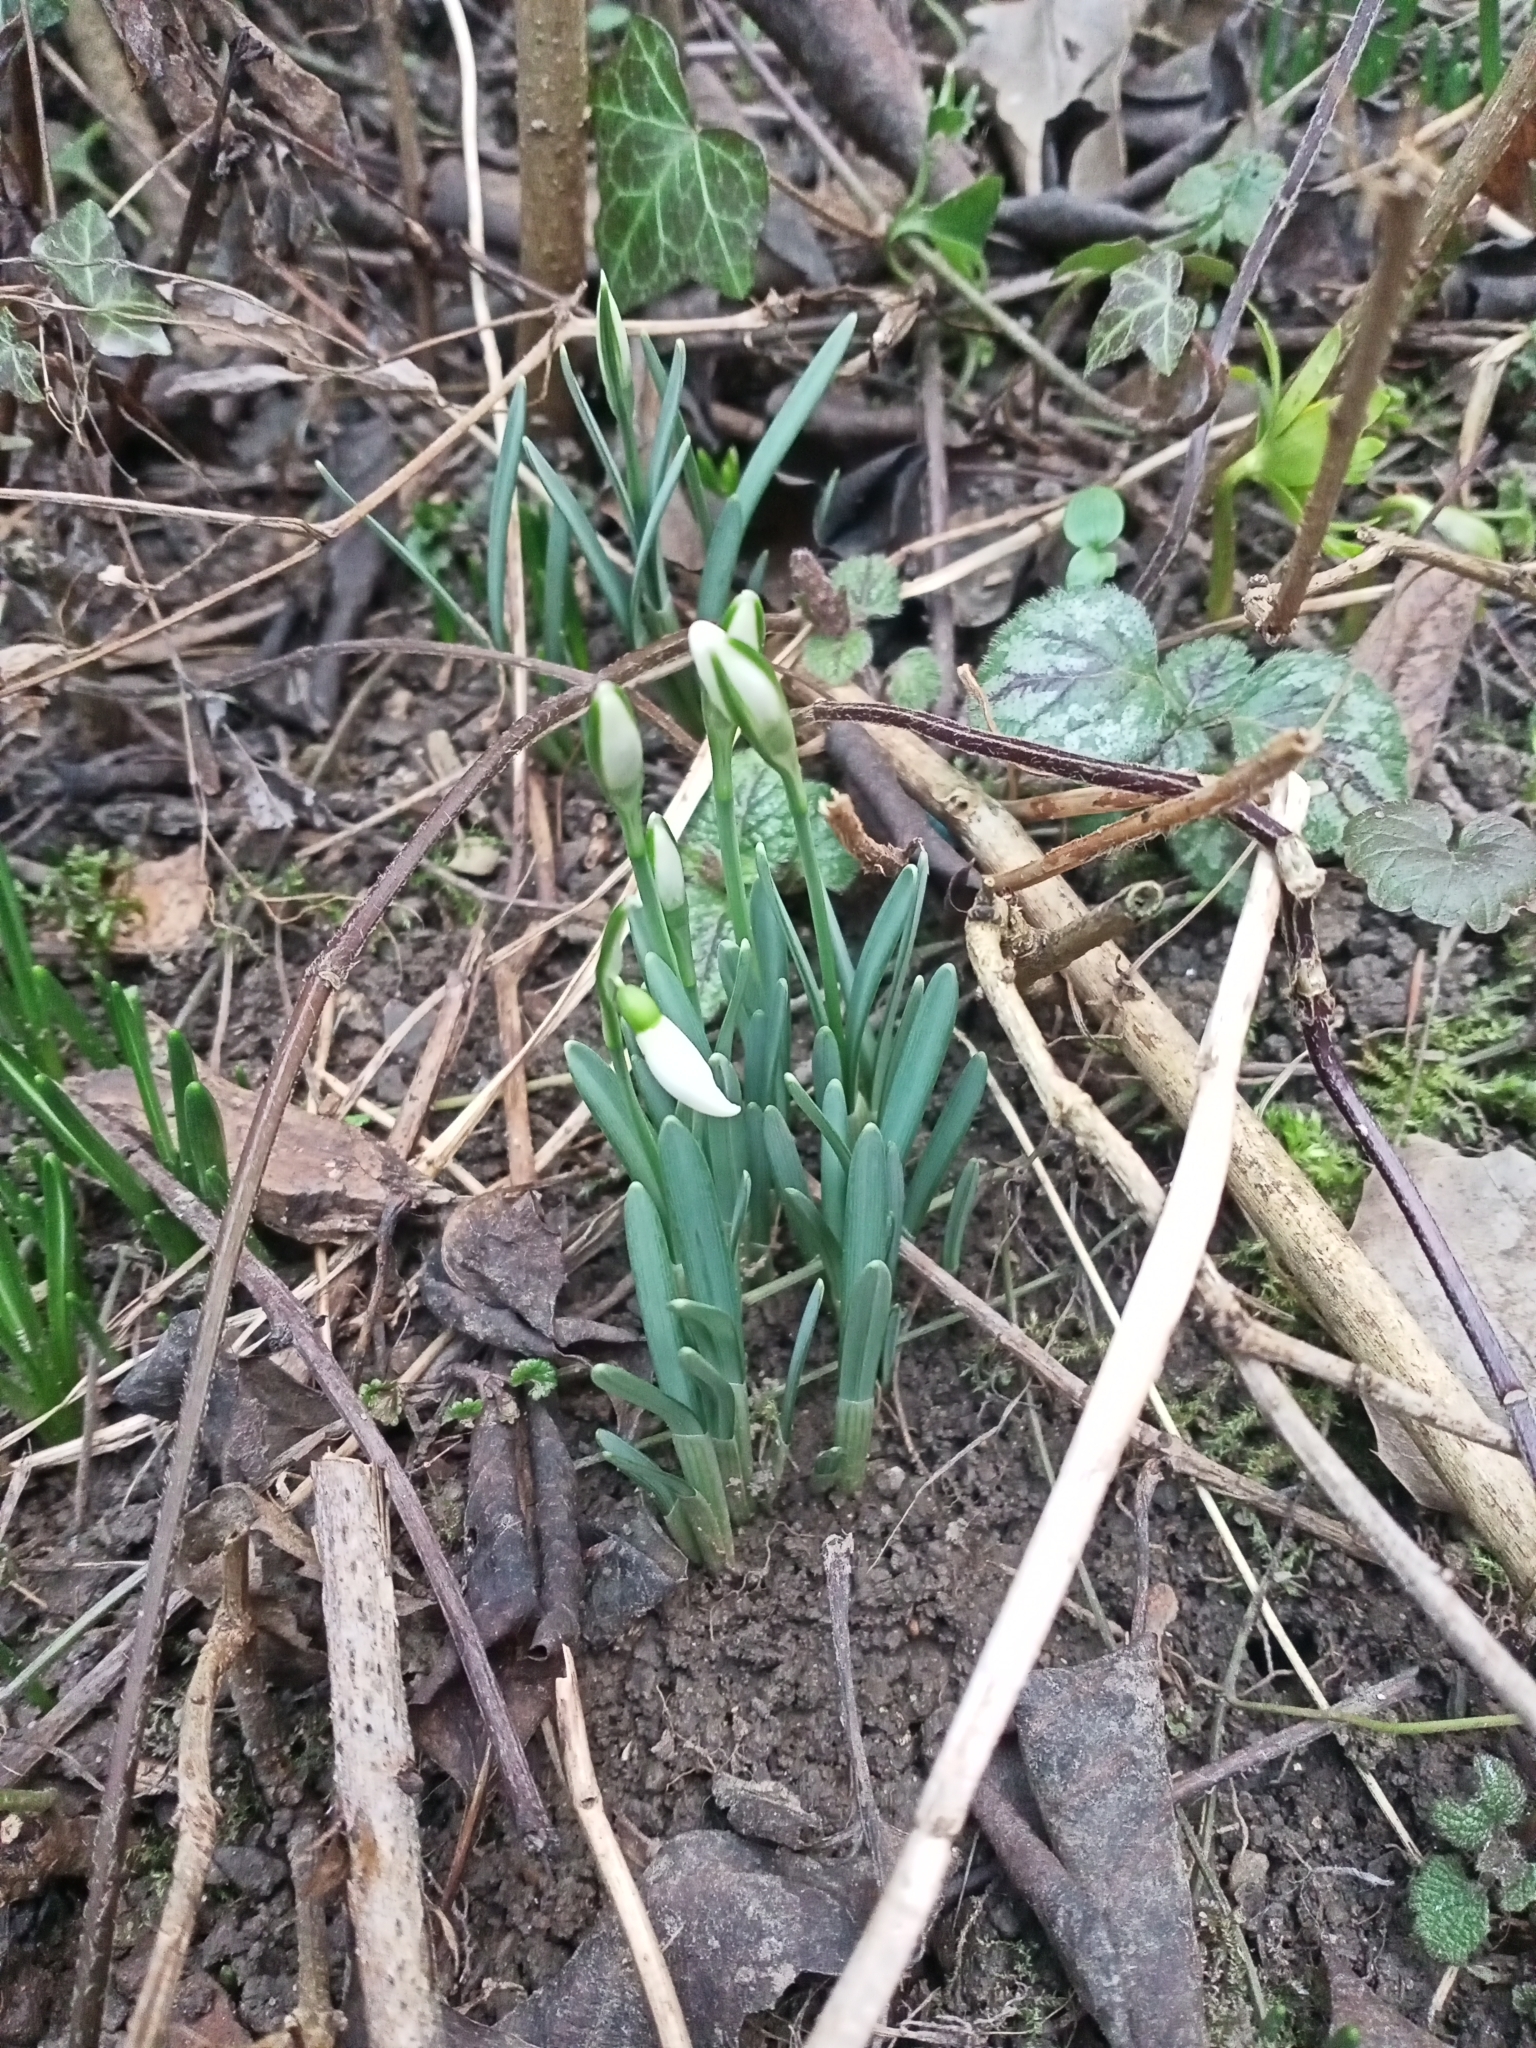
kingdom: Plantae
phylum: Tracheophyta
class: Liliopsida
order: Asparagales
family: Amaryllidaceae
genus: Galanthus
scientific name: Galanthus nivalis
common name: Snowdrop
